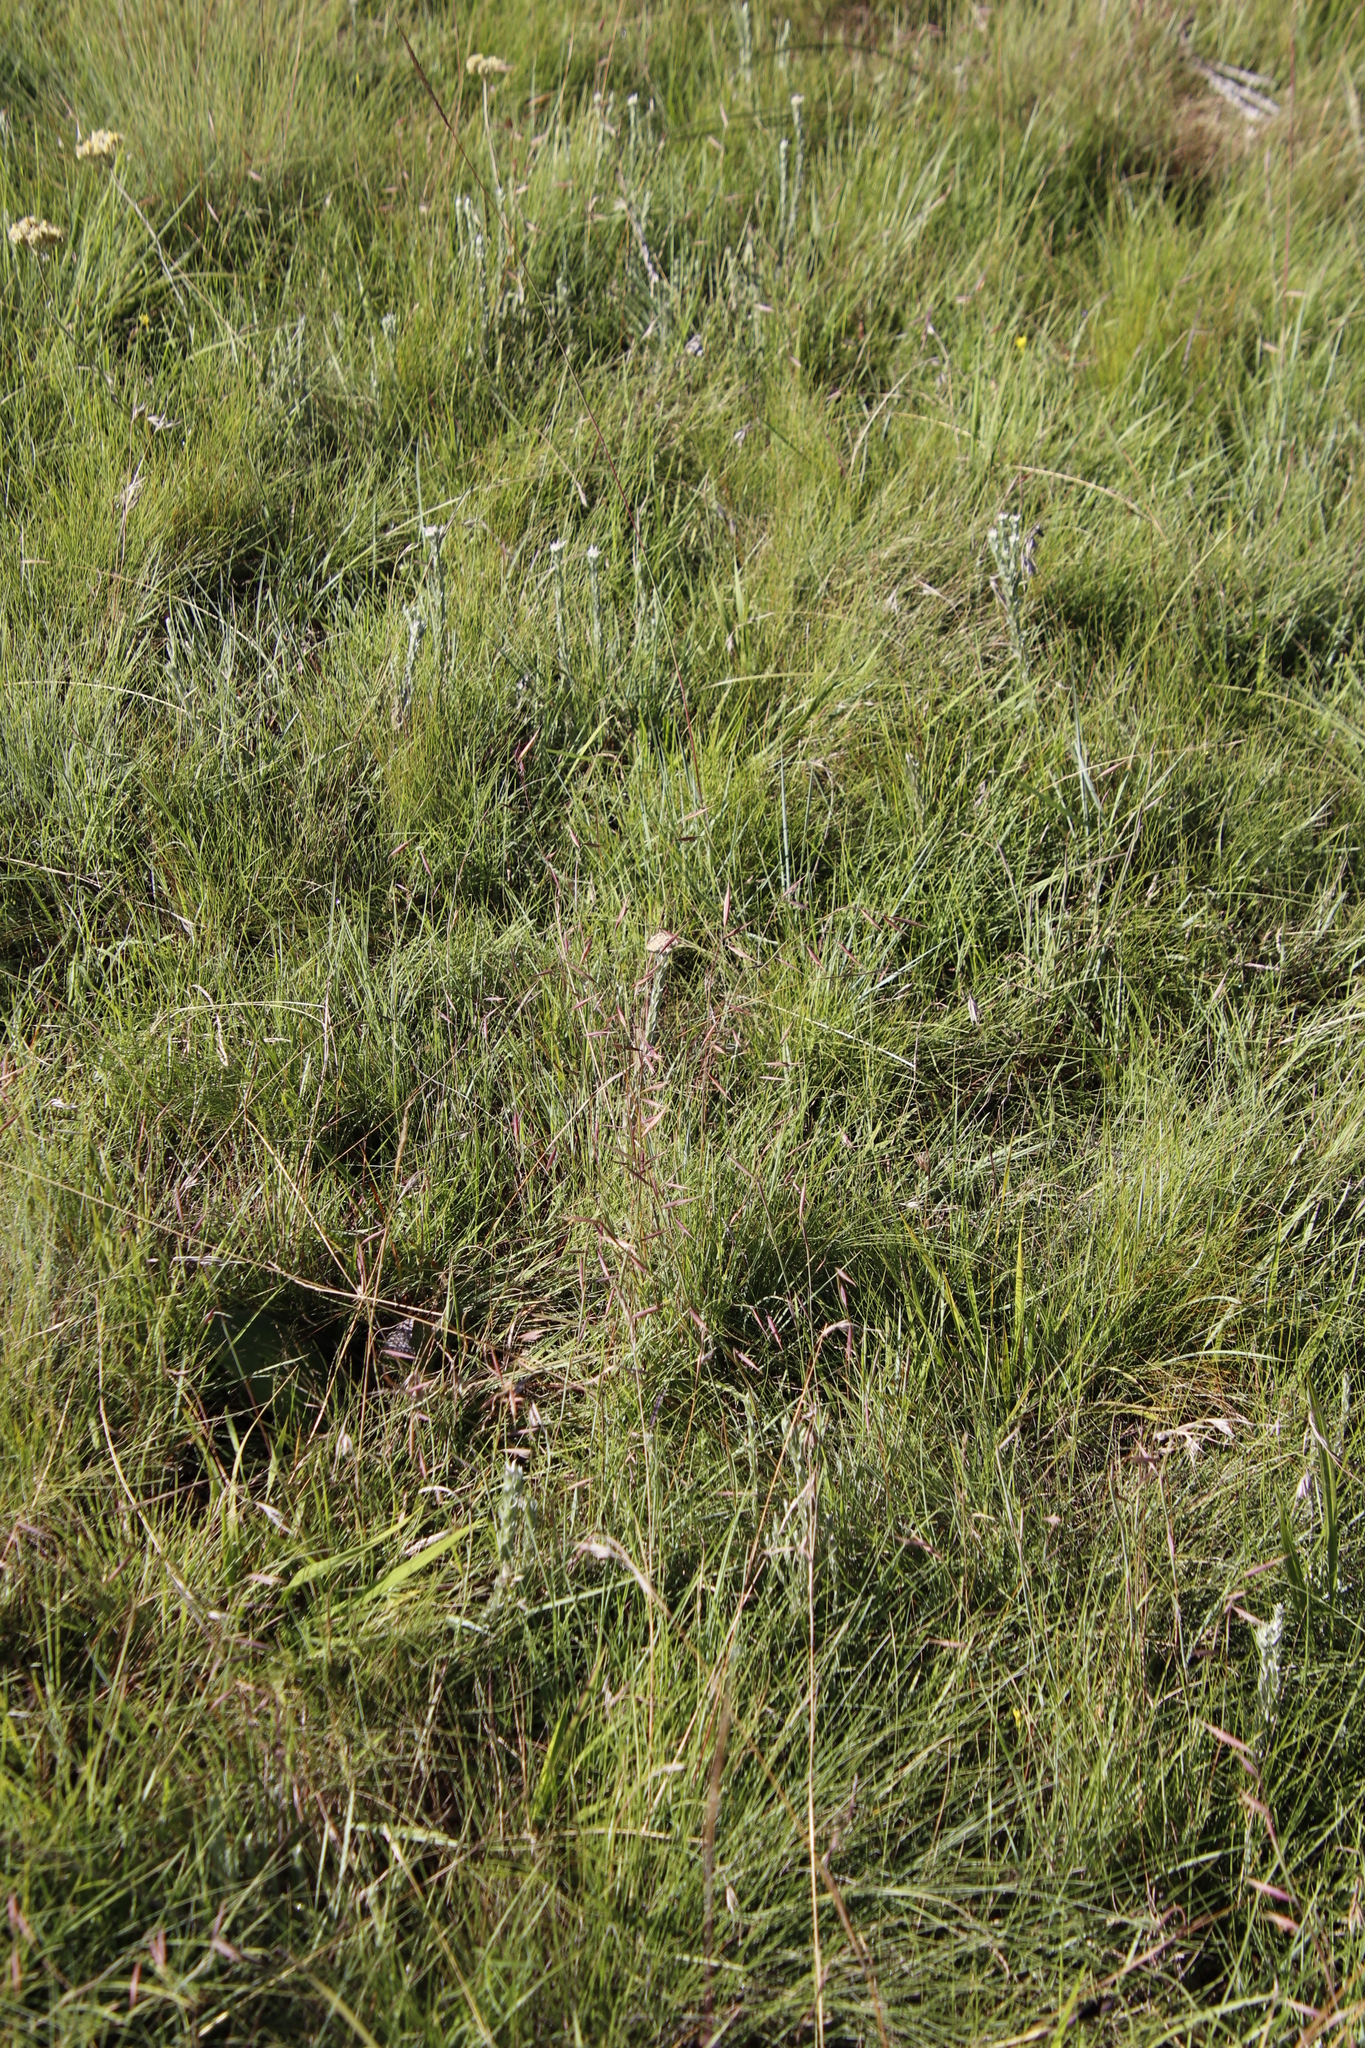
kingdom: Plantae
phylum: Tracheophyta
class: Liliopsida
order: Poales
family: Poaceae
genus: Monocymbium
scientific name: Monocymbium ceresiiforme
